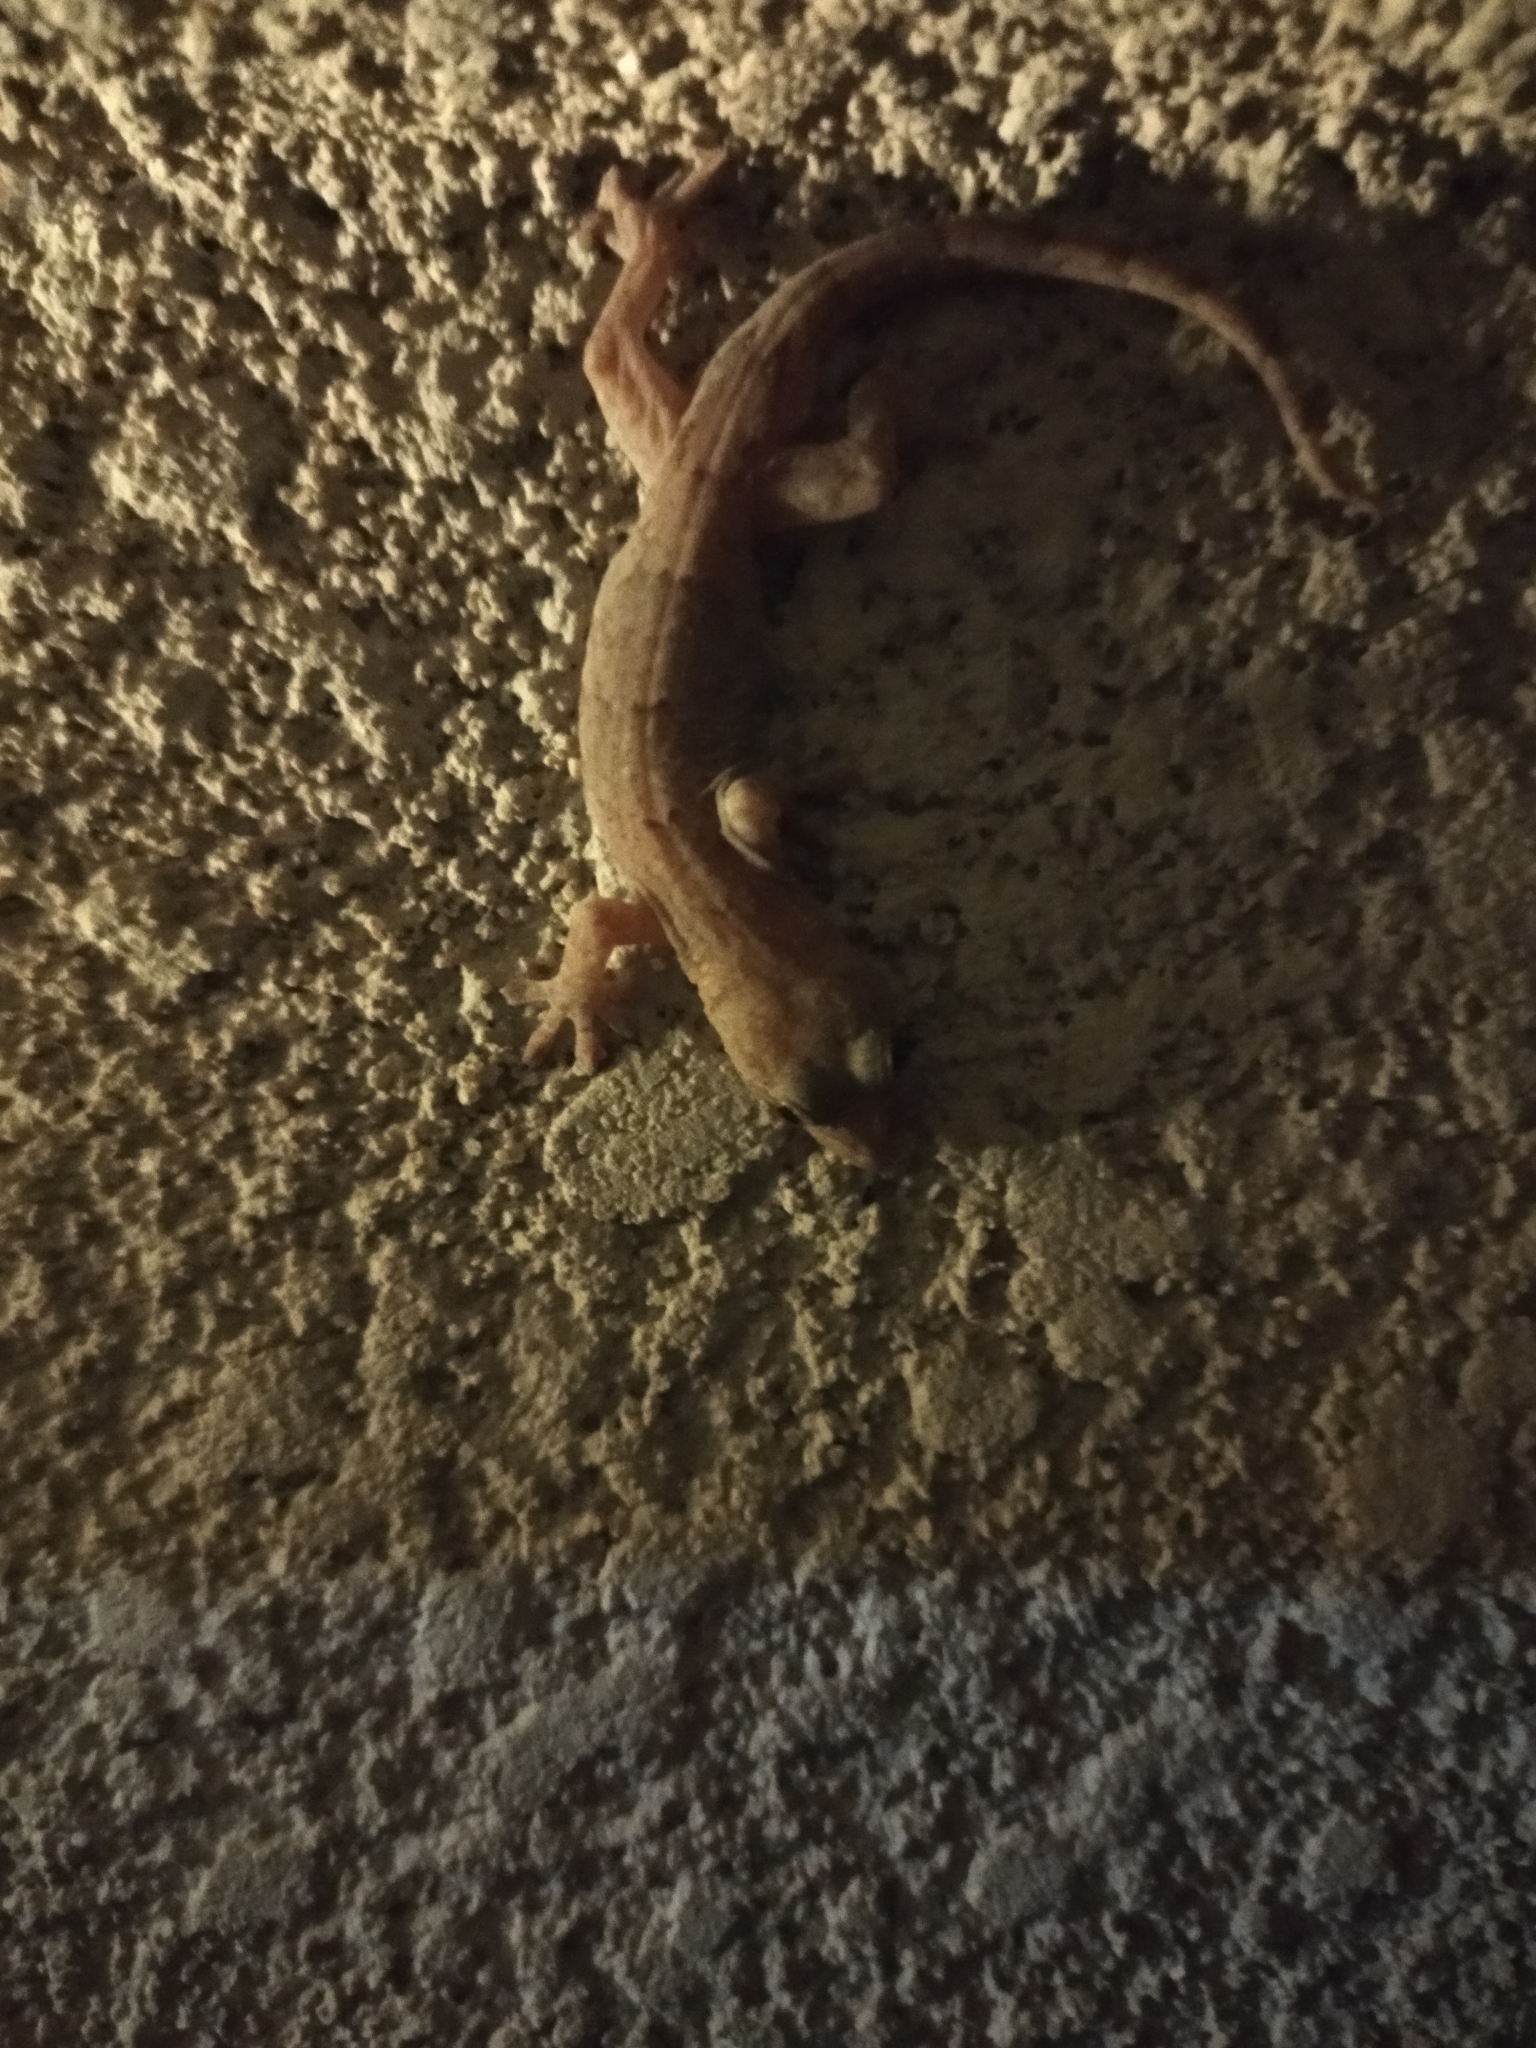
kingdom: Animalia
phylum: Chordata
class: Squamata
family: Gekkonidae
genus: Gekko
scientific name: Gekko japonicus
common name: Schlegel's japanese gecko
